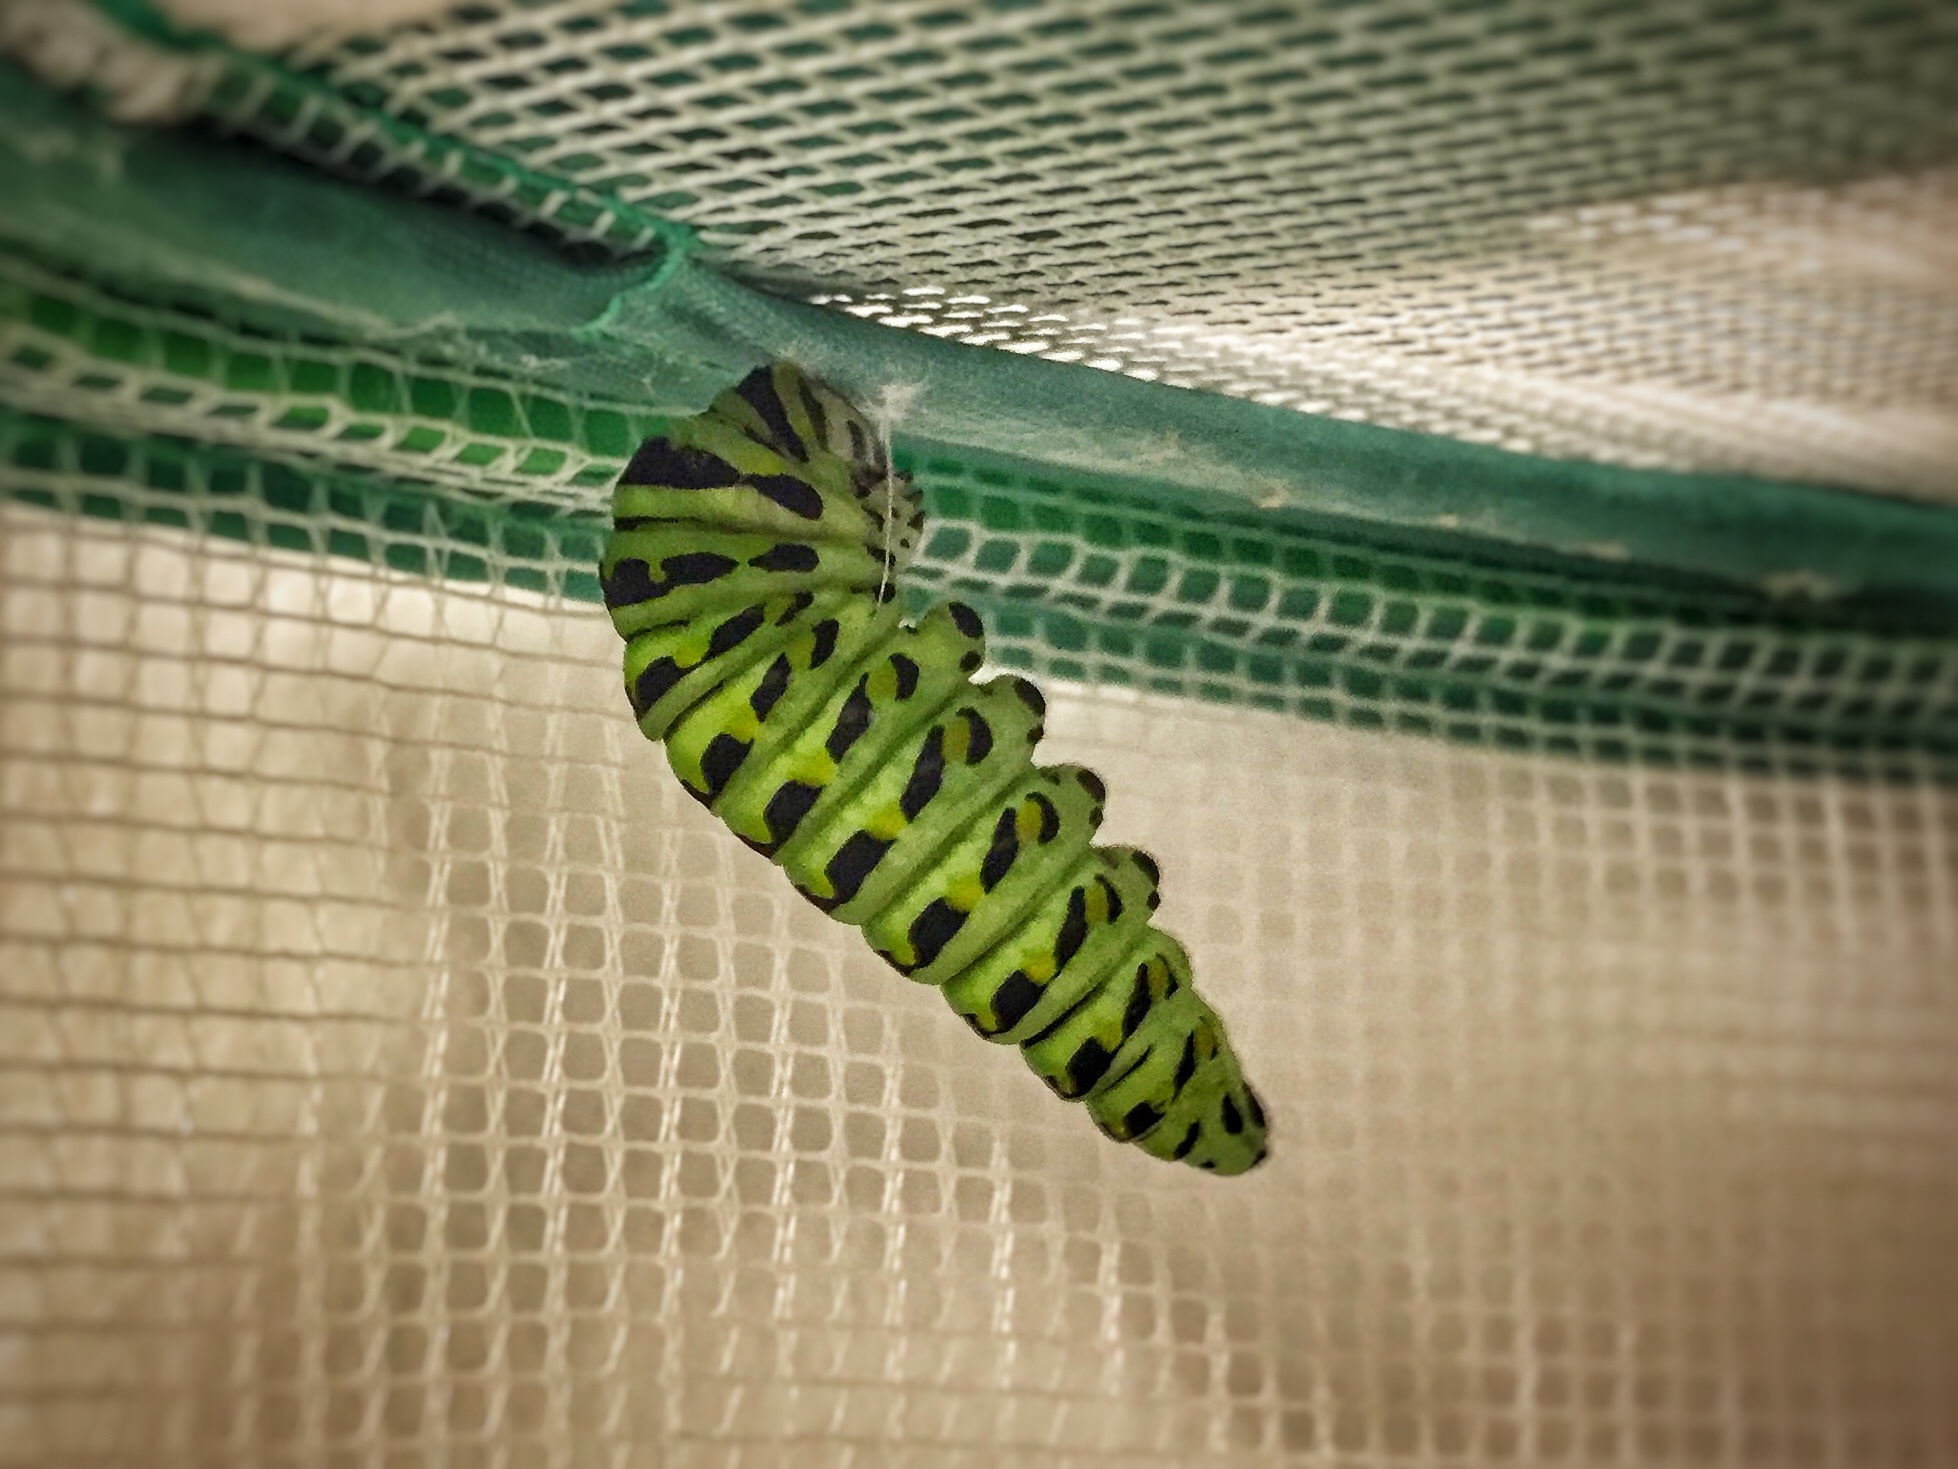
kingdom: Animalia
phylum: Arthropoda
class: Insecta
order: Lepidoptera
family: Papilionidae
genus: Papilio
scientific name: Papilio polyxenes
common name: Black swallowtail
